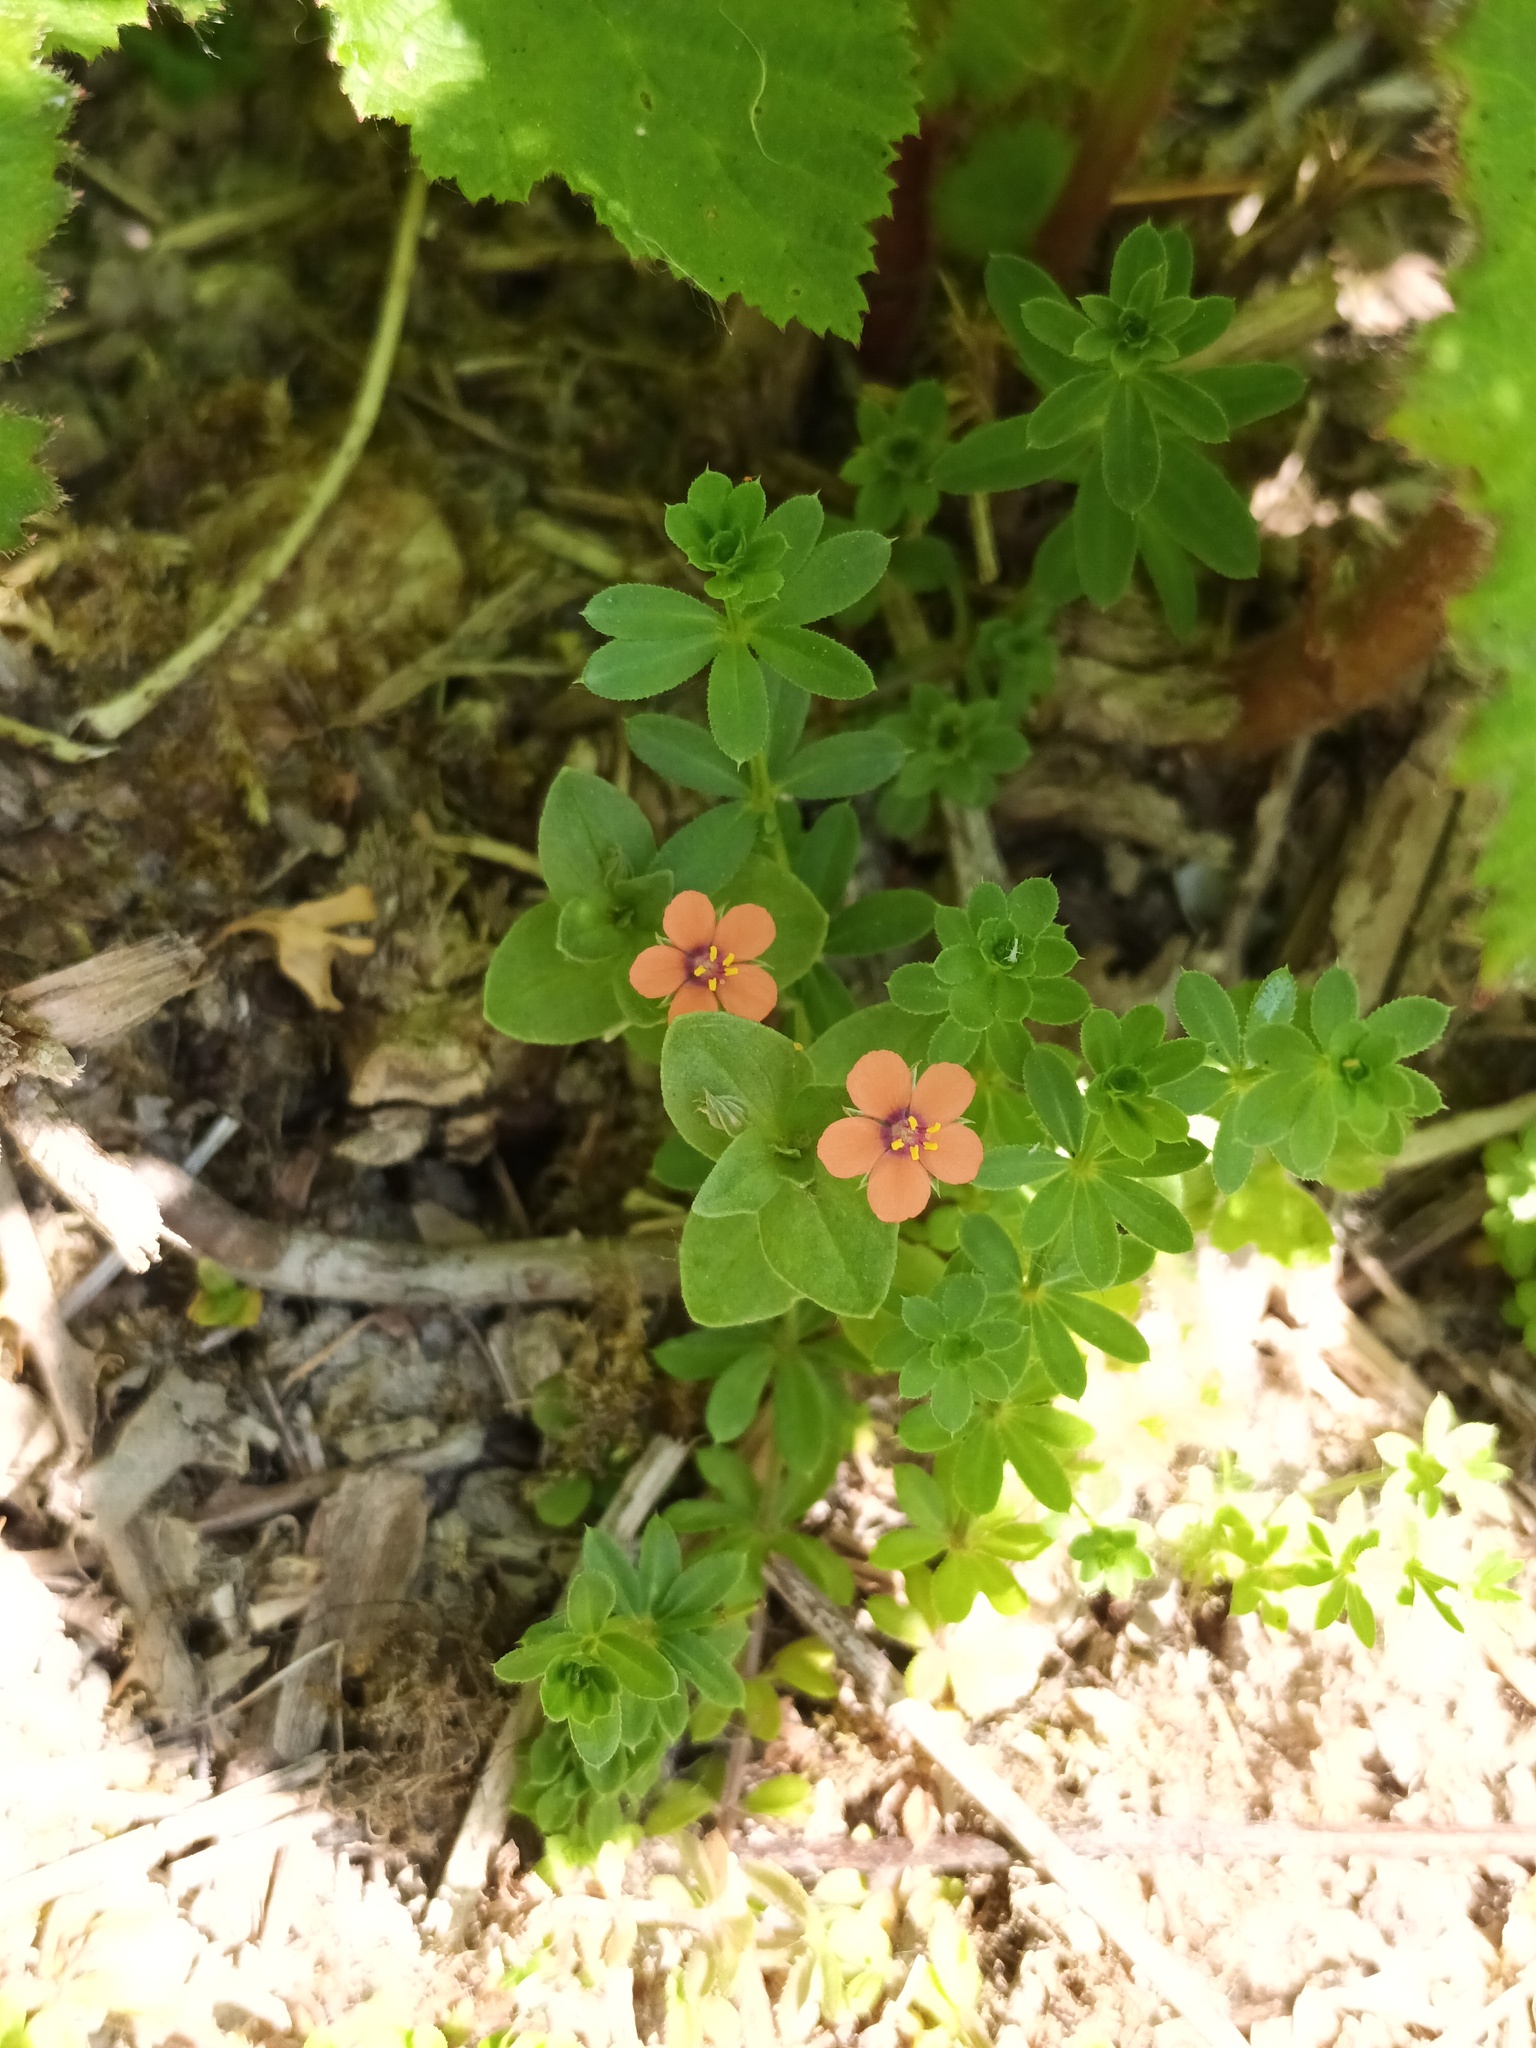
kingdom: Plantae
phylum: Tracheophyta
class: Magnoliopsida
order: Ericales
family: Primulaceae
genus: Lysimachia
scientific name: Lysimachia arvensis
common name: Scarlet pimpernel
